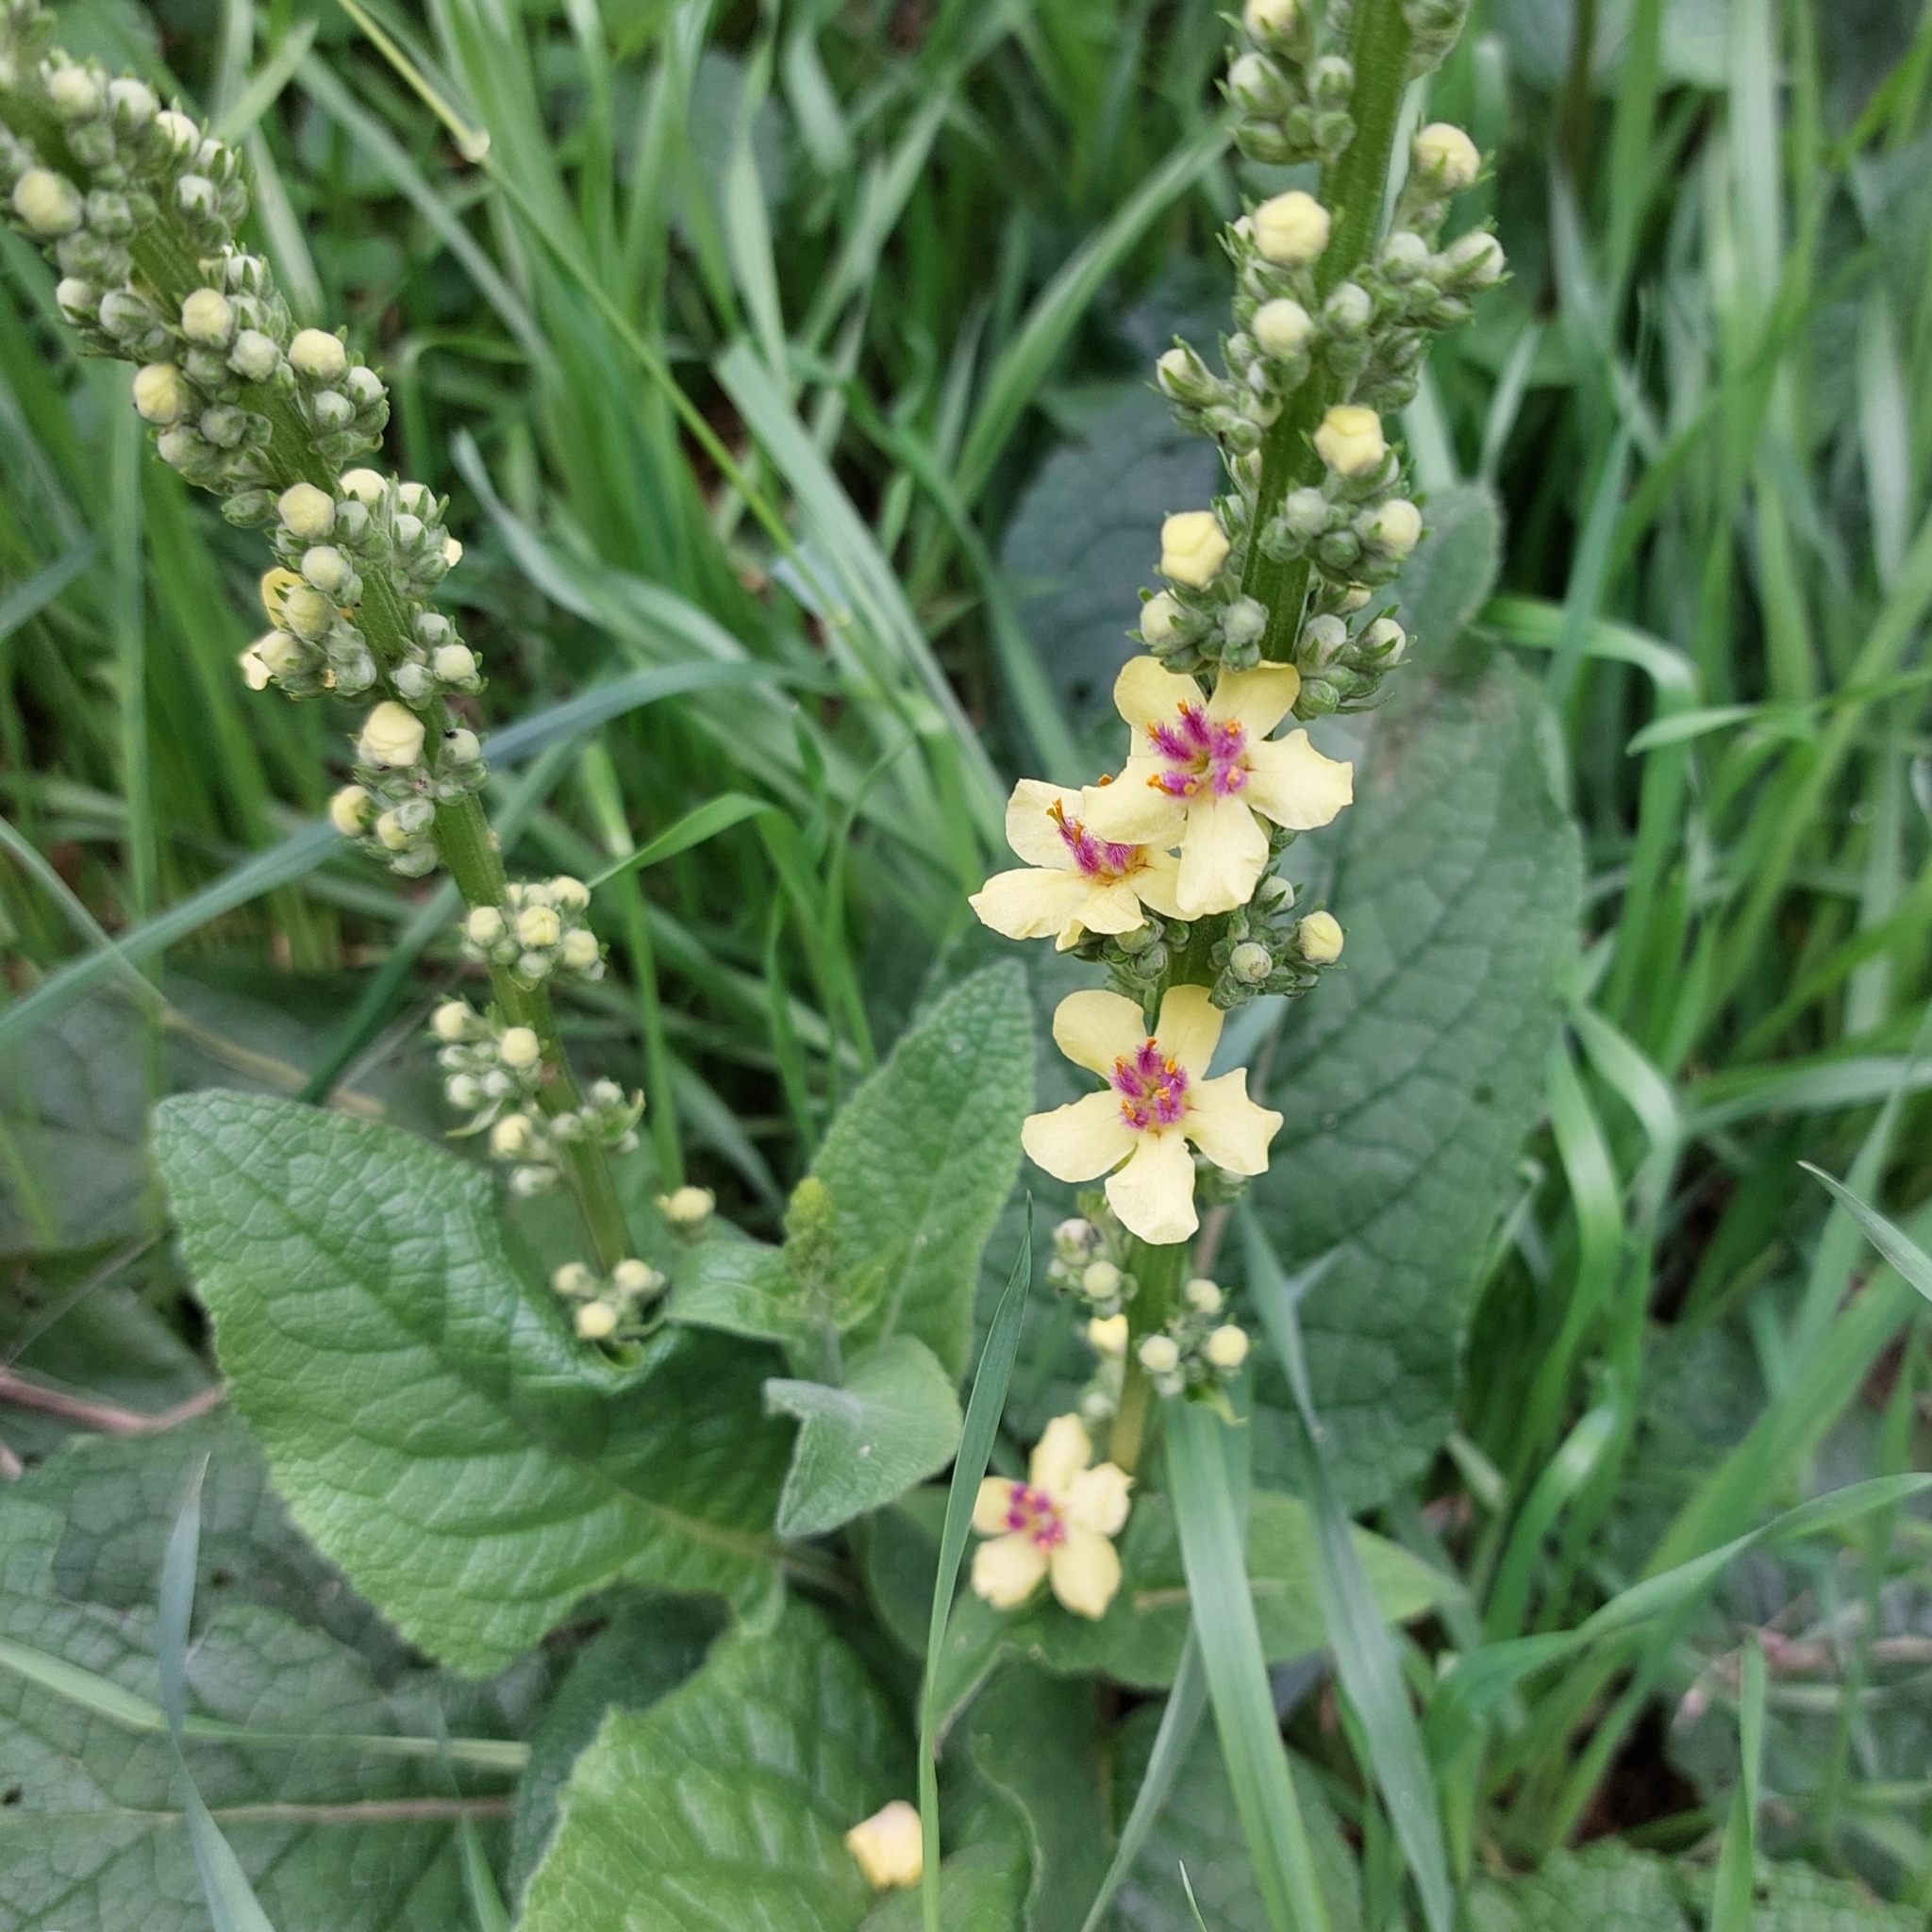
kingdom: Plantae
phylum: Tracheophyta
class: Magnoliopsida
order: Lamiales
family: Scrophulariaceae
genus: Verbascum
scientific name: Verbascum nigrum
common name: Dark mullein
